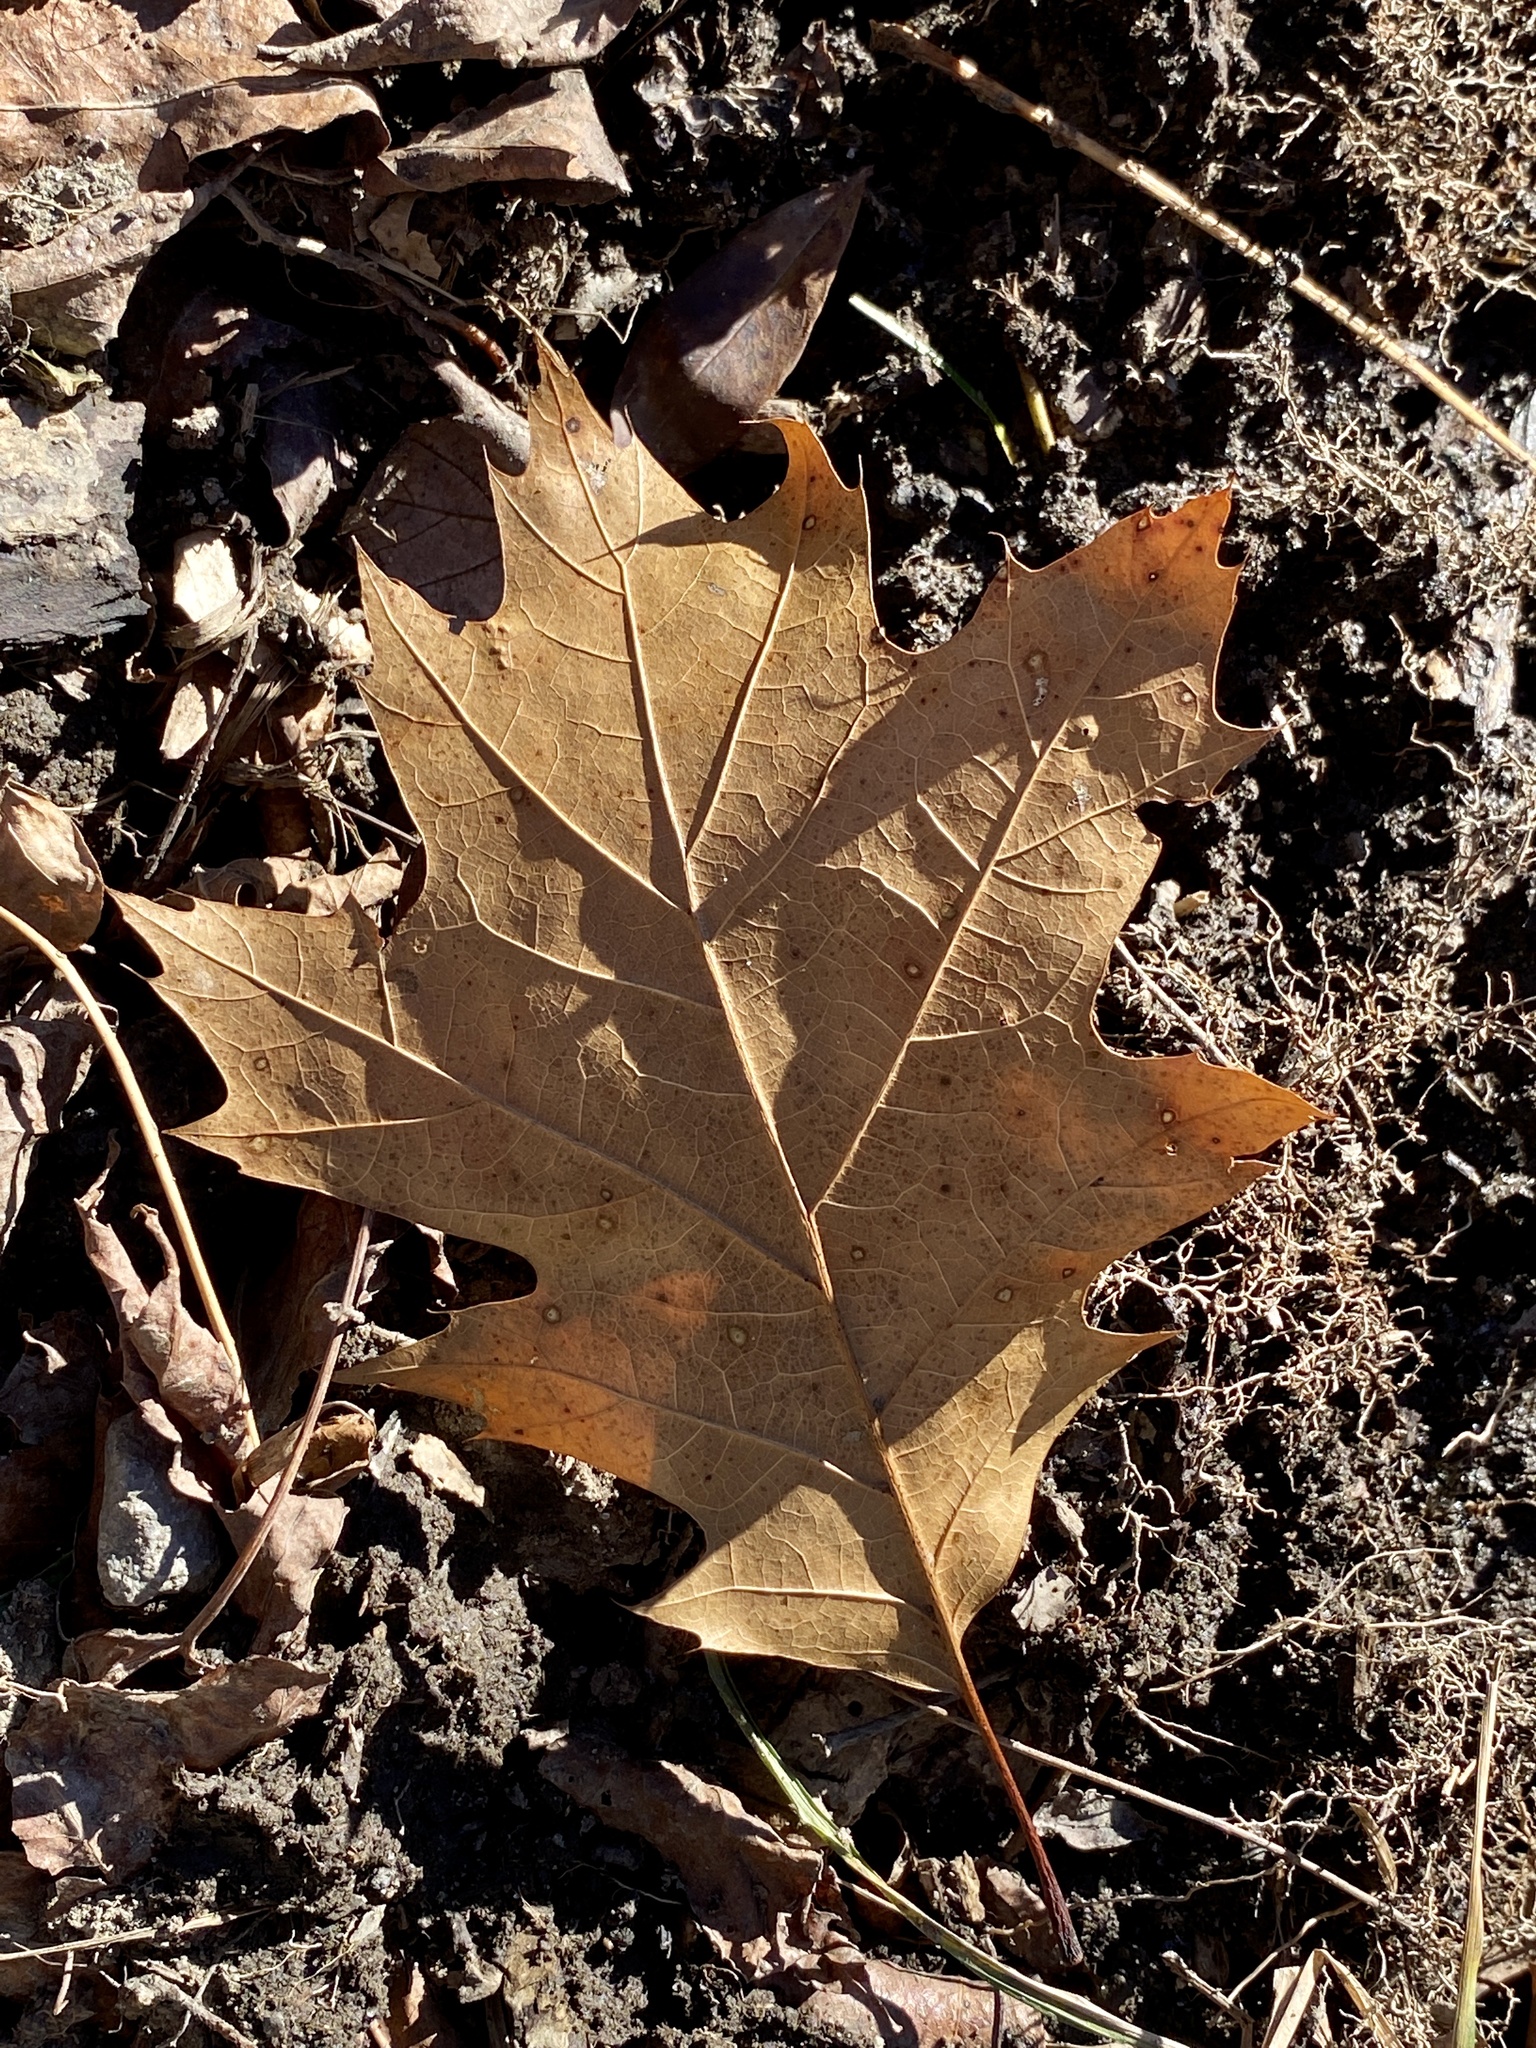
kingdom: Plantae
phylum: Tracheophyta
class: Magnoliopsida
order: Fagales
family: Fagaceae
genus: Quercus
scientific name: Quercus rubra
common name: Red oak
